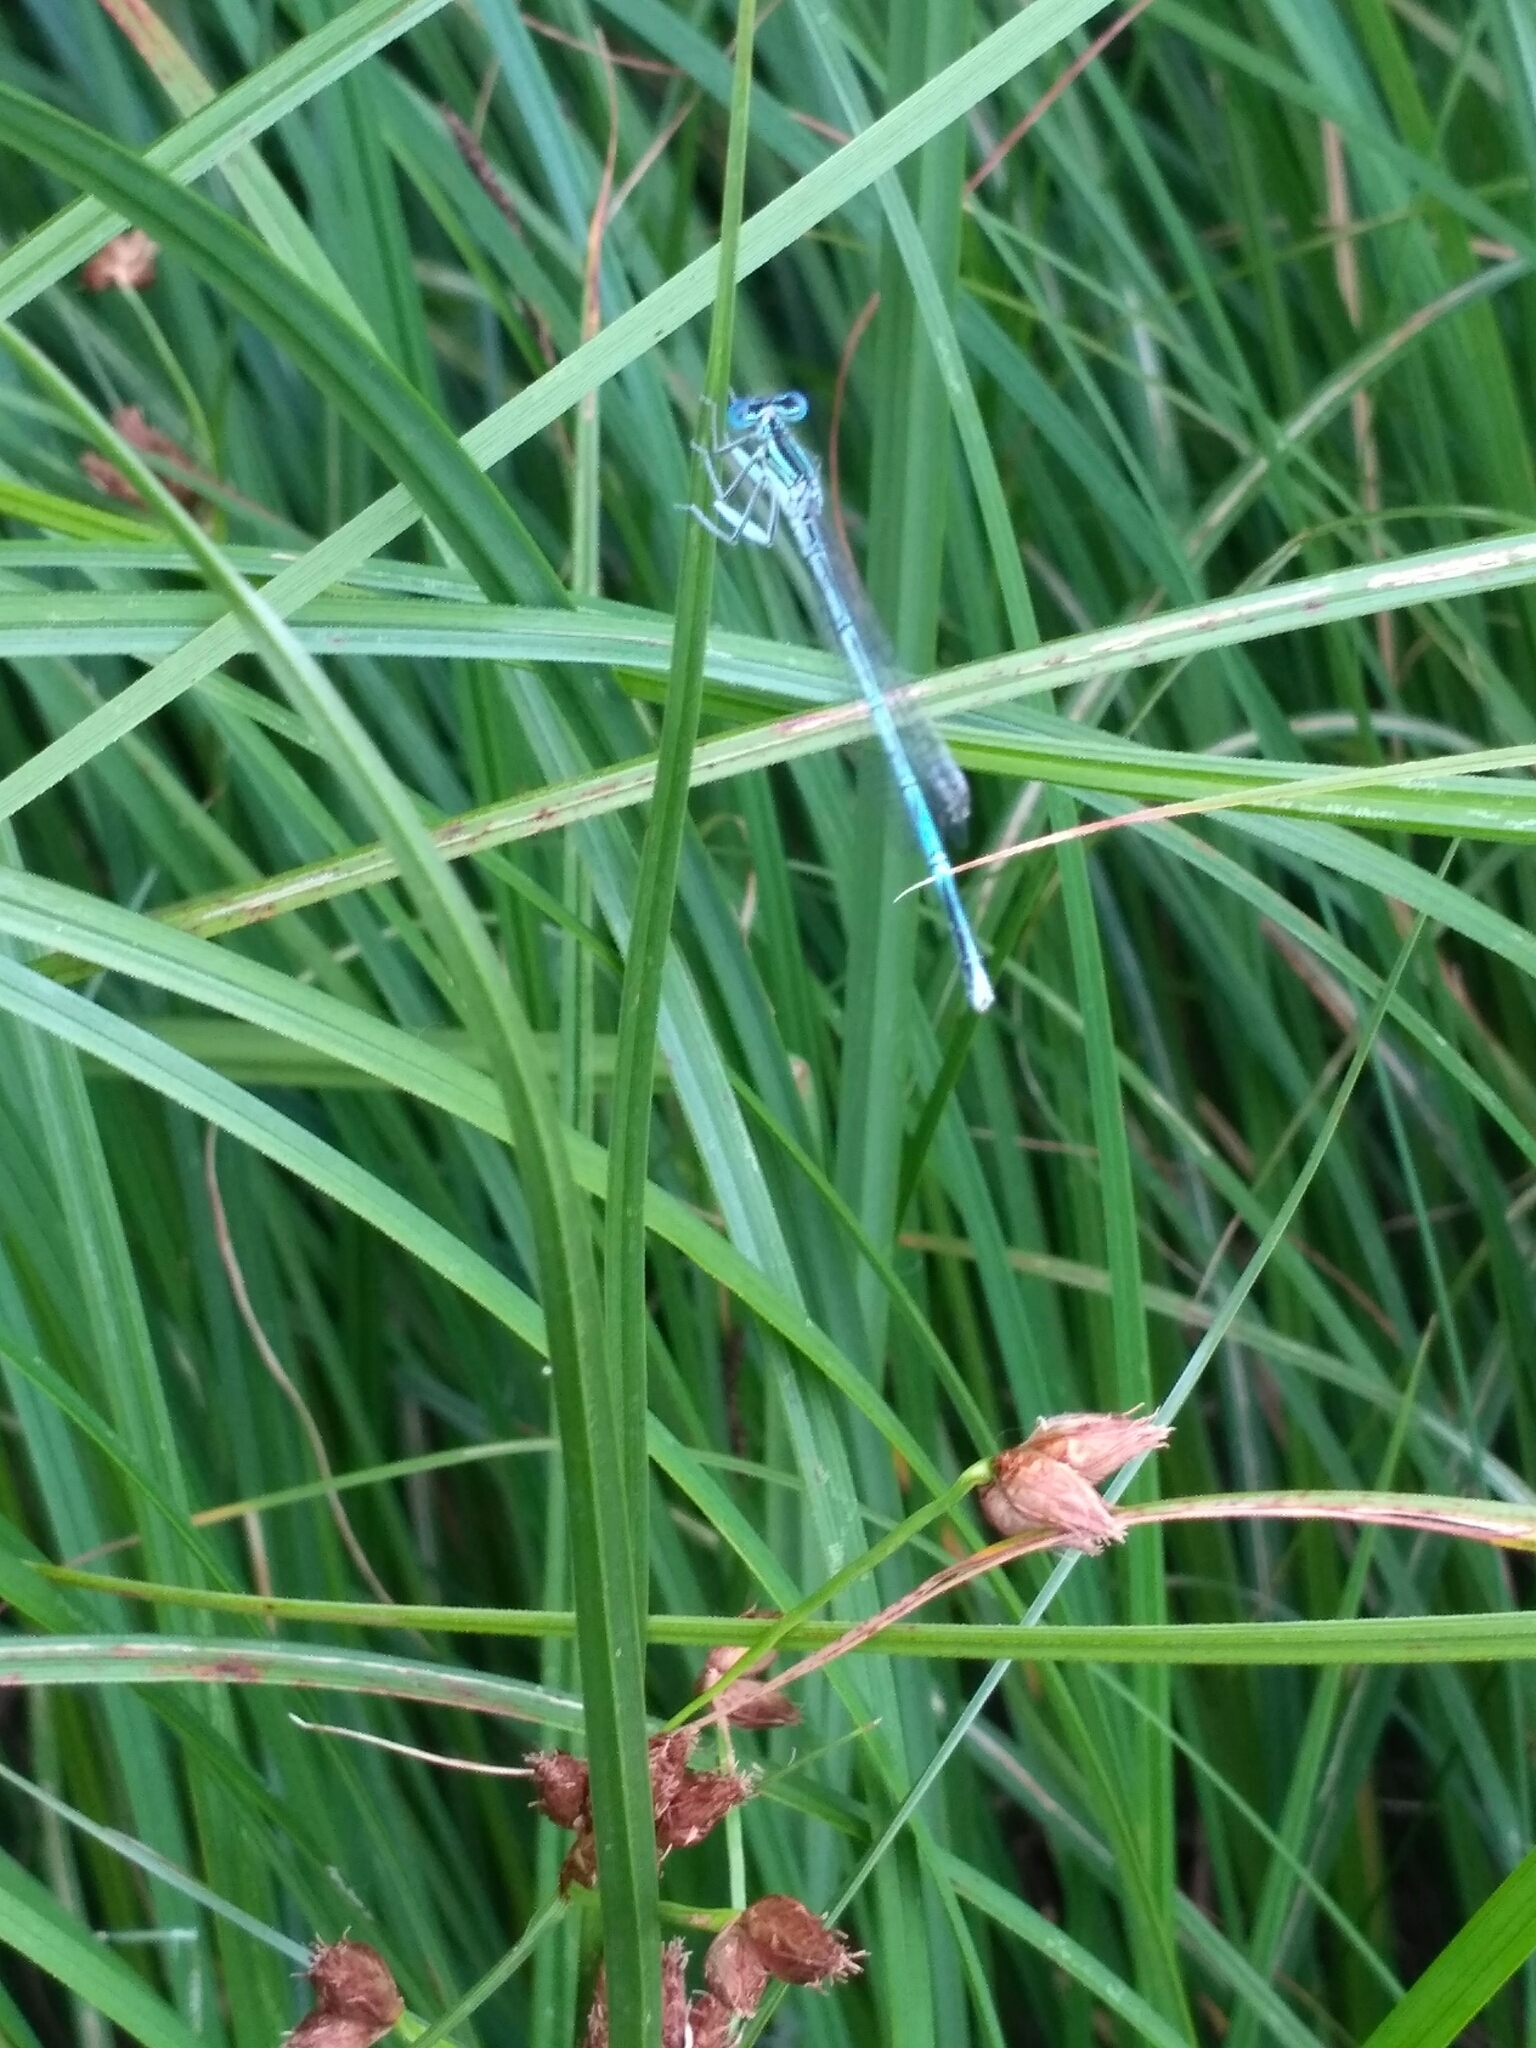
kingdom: Animalia
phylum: Arthropoda
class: Insecta
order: Odonata
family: Platycnemididae
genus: Platycnemis
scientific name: Platycnemis pennipes
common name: White-legged damselfly
